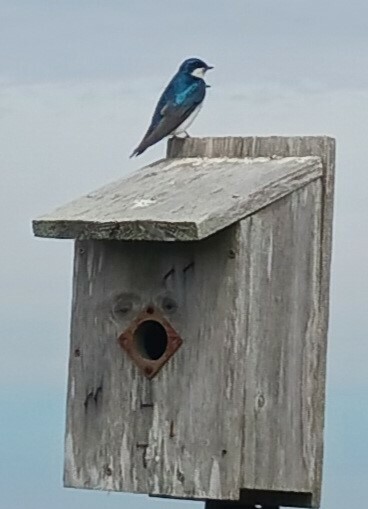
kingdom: Animalia
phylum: Chordata
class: Aves
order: Passeriformes
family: Hirundinidae
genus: Tachycineta
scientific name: Tachycineta bicolor
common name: Tree swallow
